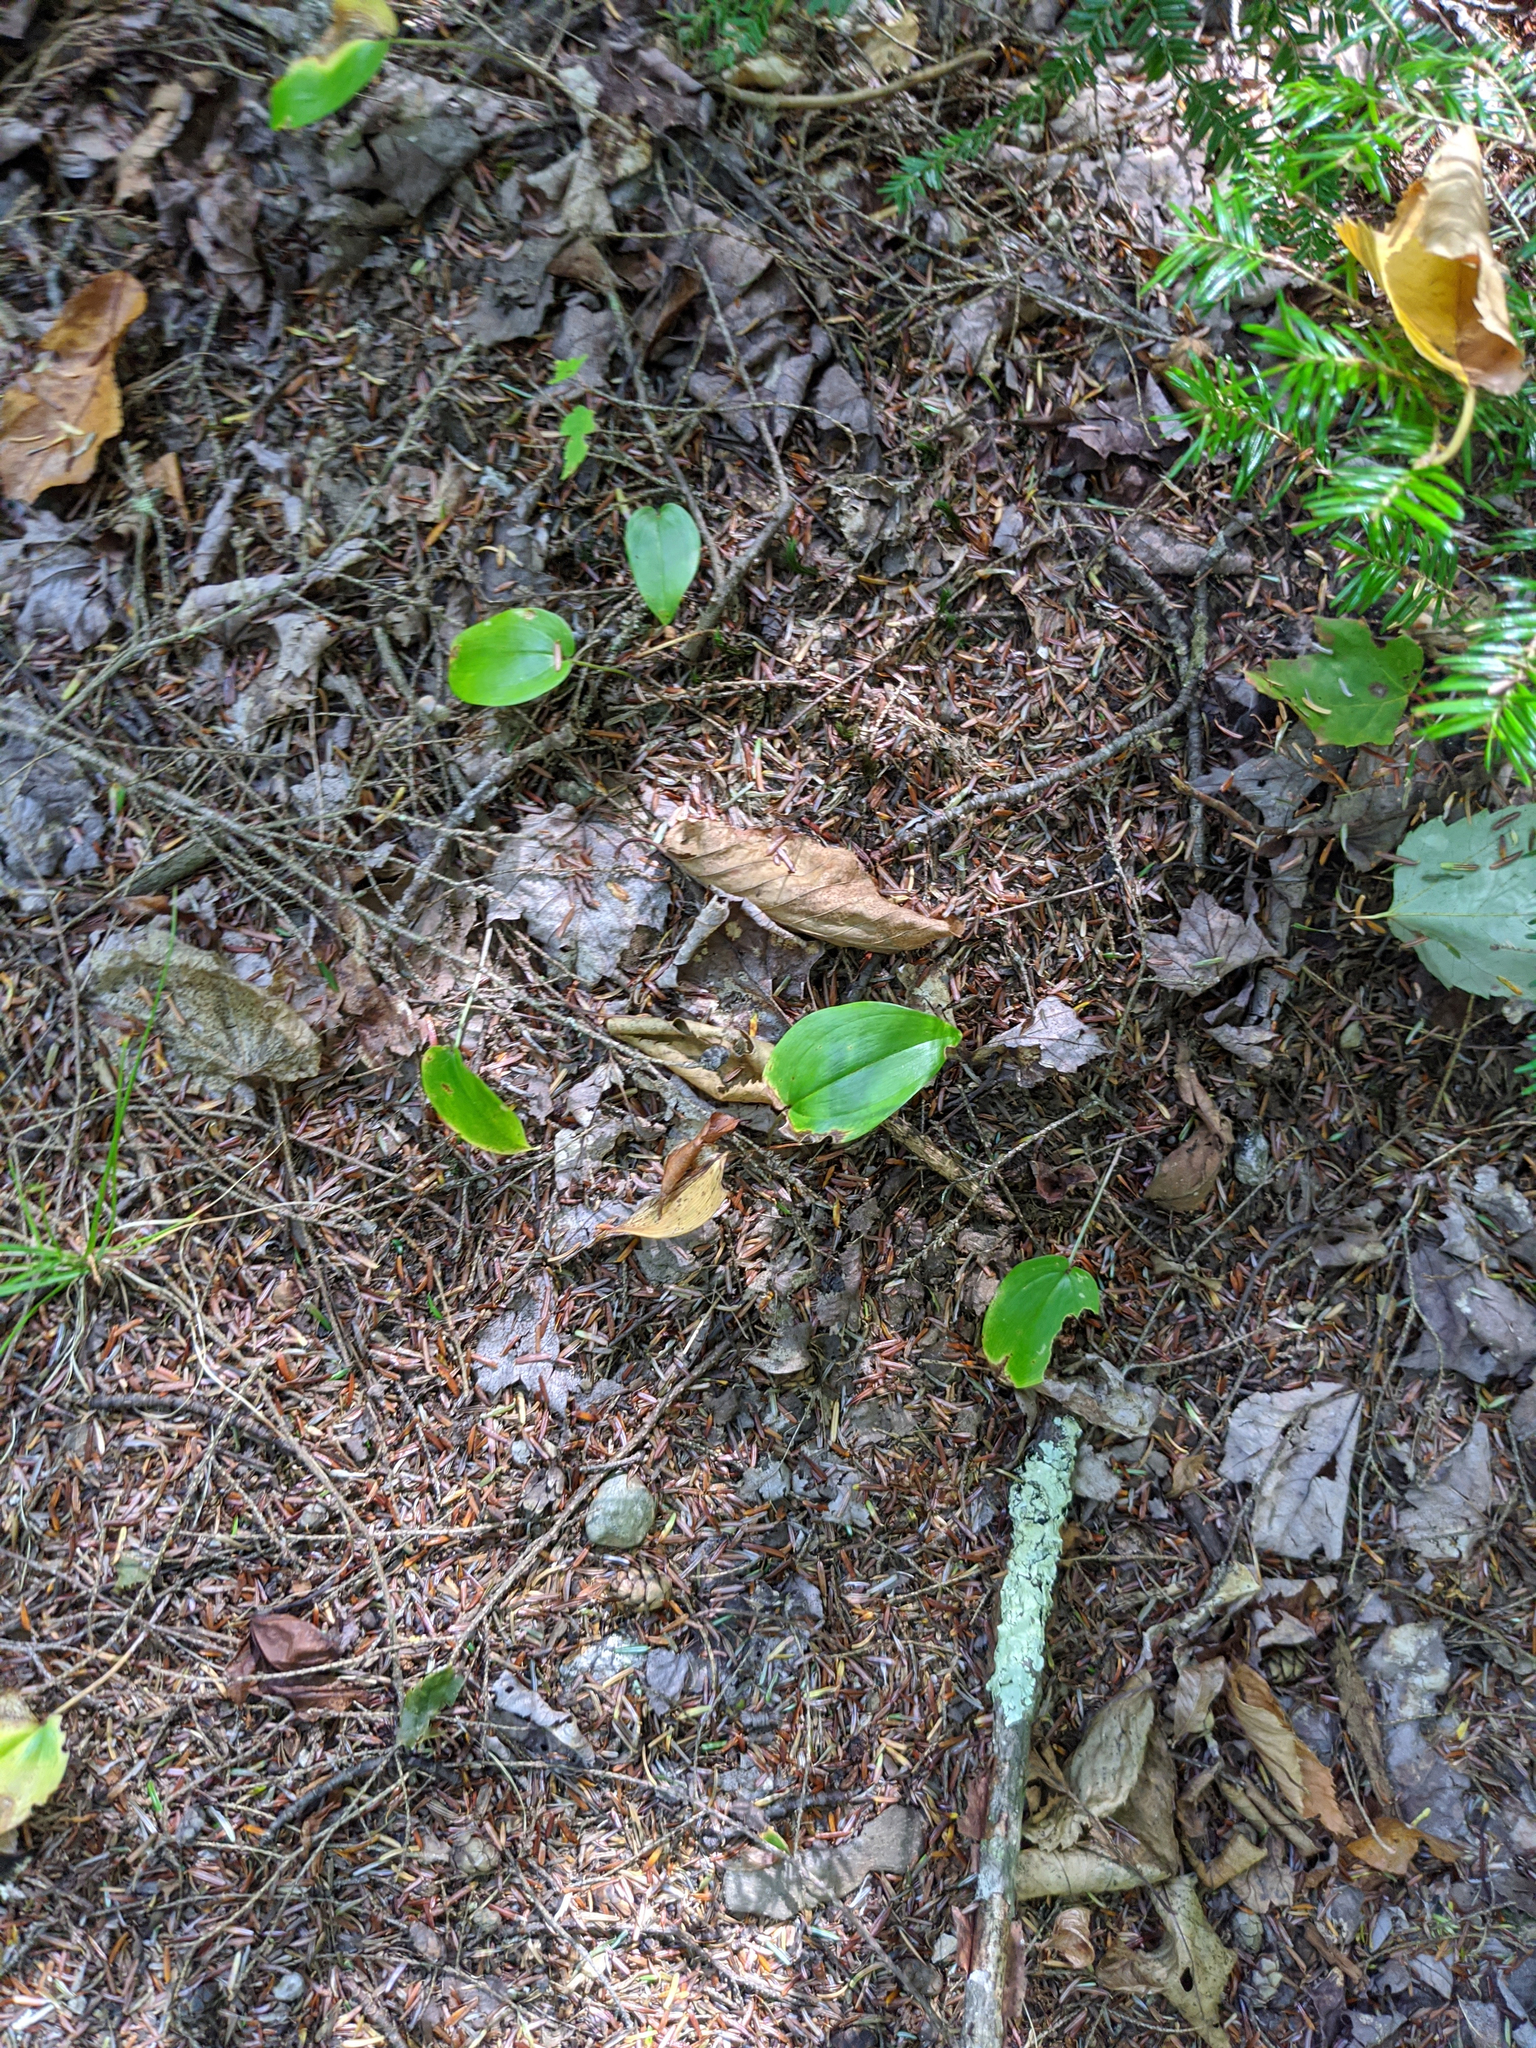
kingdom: Plantae
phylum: Tracheophyta
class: Liliopsida
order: Asparagales
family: Asparagaceae
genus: Maianthemum
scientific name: Maianthemum canadense
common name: False lily-of-the-valley
